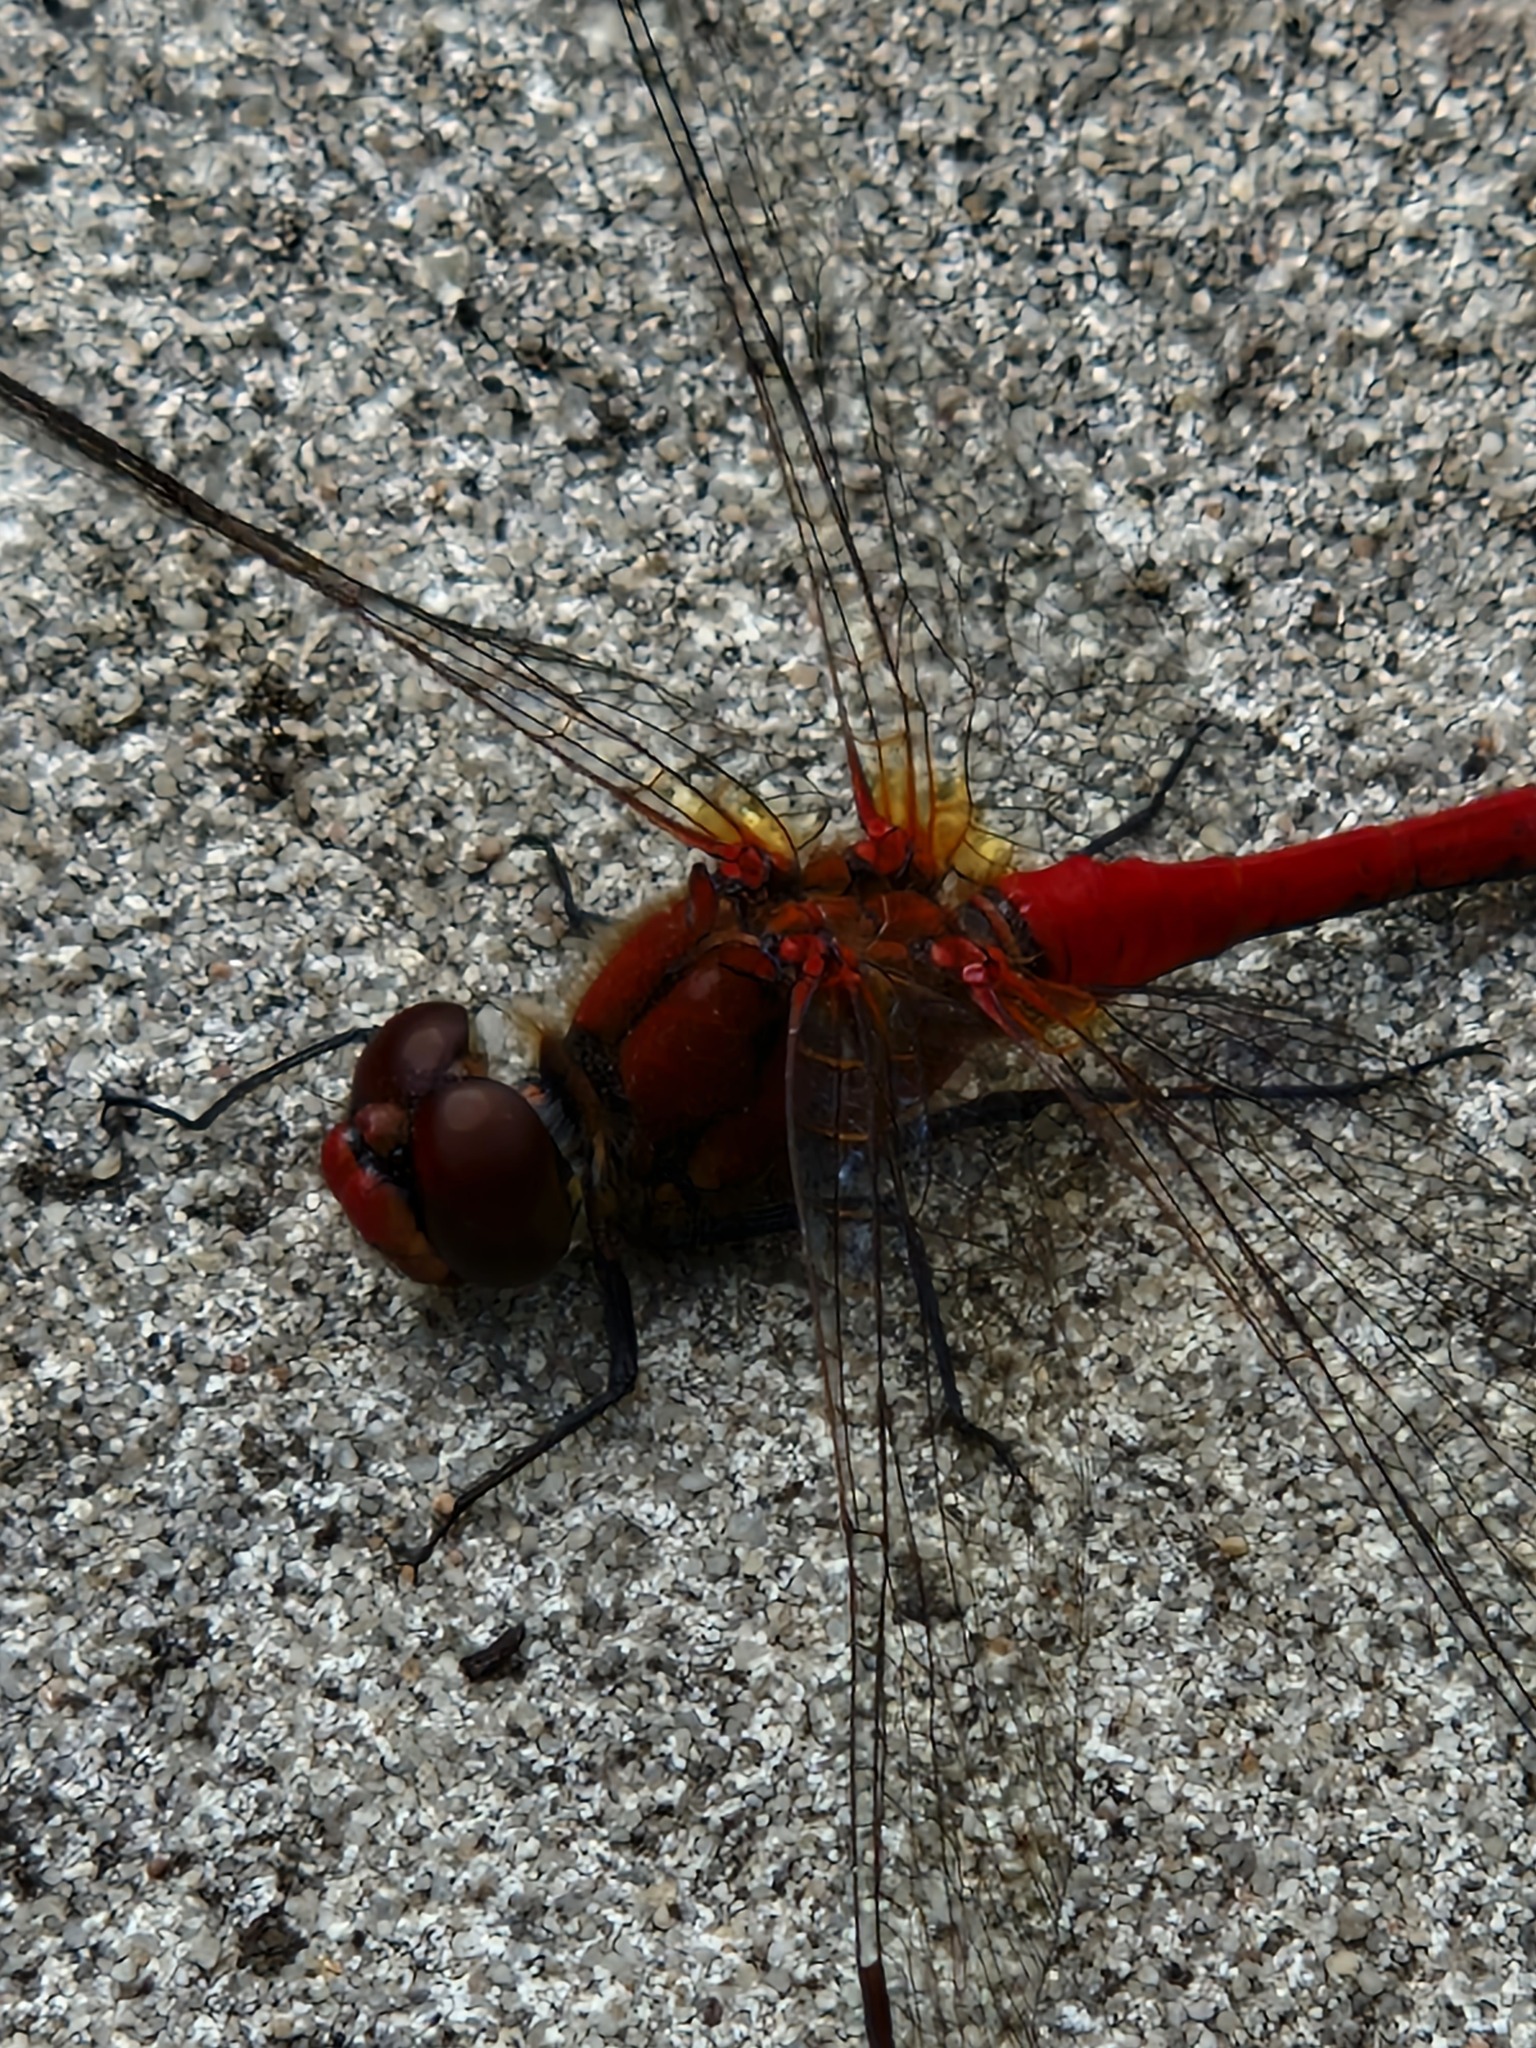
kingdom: Animalia
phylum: Arthropoda
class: Insecta
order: Odonata
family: Libellulidae
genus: Sympetrum
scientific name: Sympetrum sanguineum
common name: Ruddy darter
